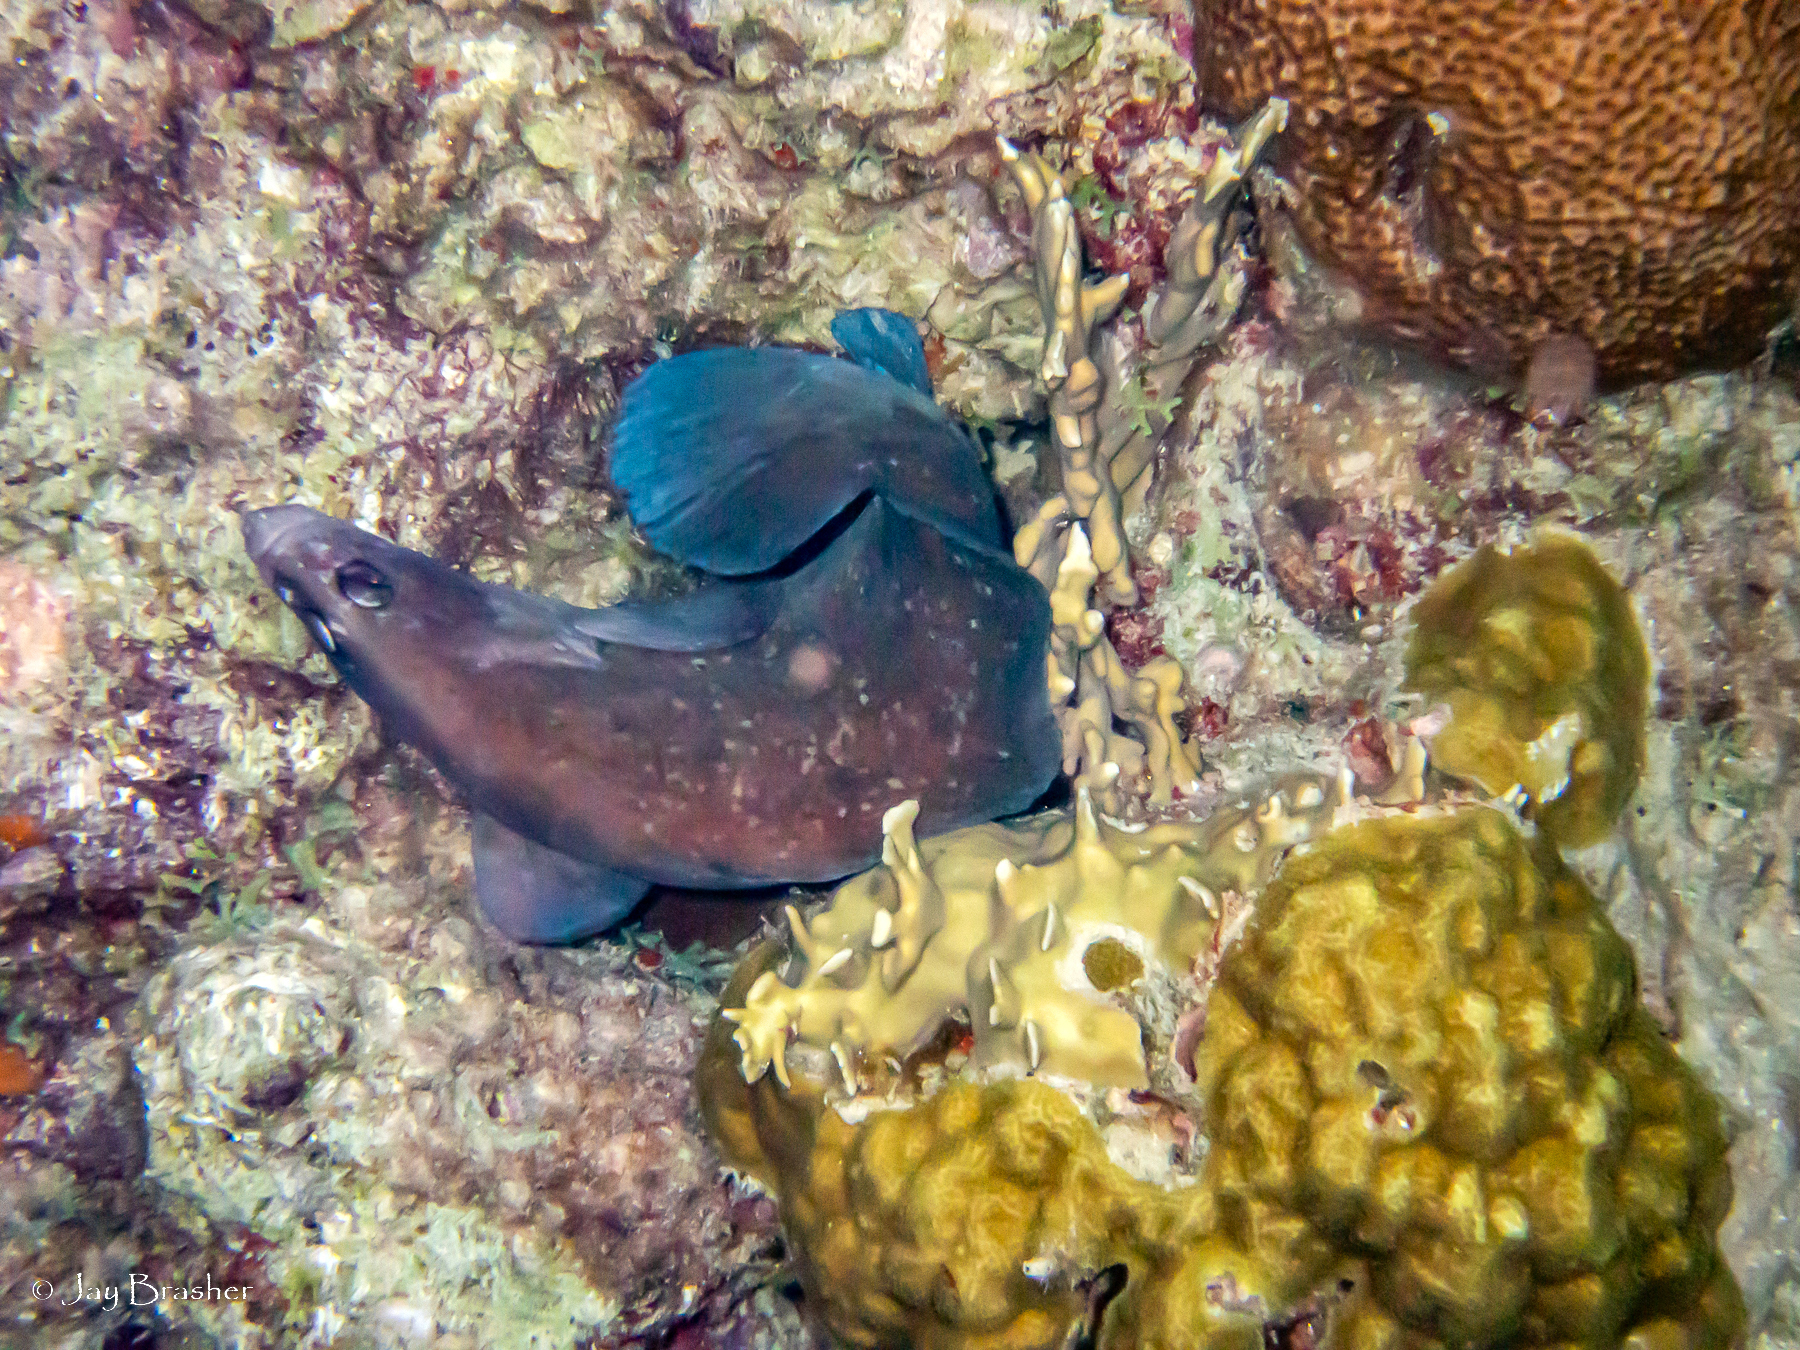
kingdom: Animalia
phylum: Chordata
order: Perciformes
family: Serranidae
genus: Rypticus
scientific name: Rypticus saponaceus
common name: Soapfish
